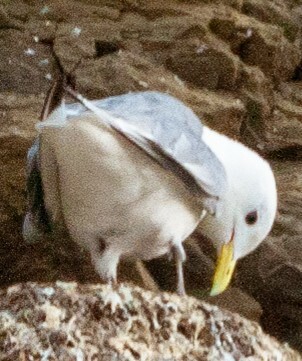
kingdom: Animalia
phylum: Chordata
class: Aves
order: Charadriiformes
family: Laridae
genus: Rissa
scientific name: Rissa tridactyla
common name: Black-legged kittiwake
